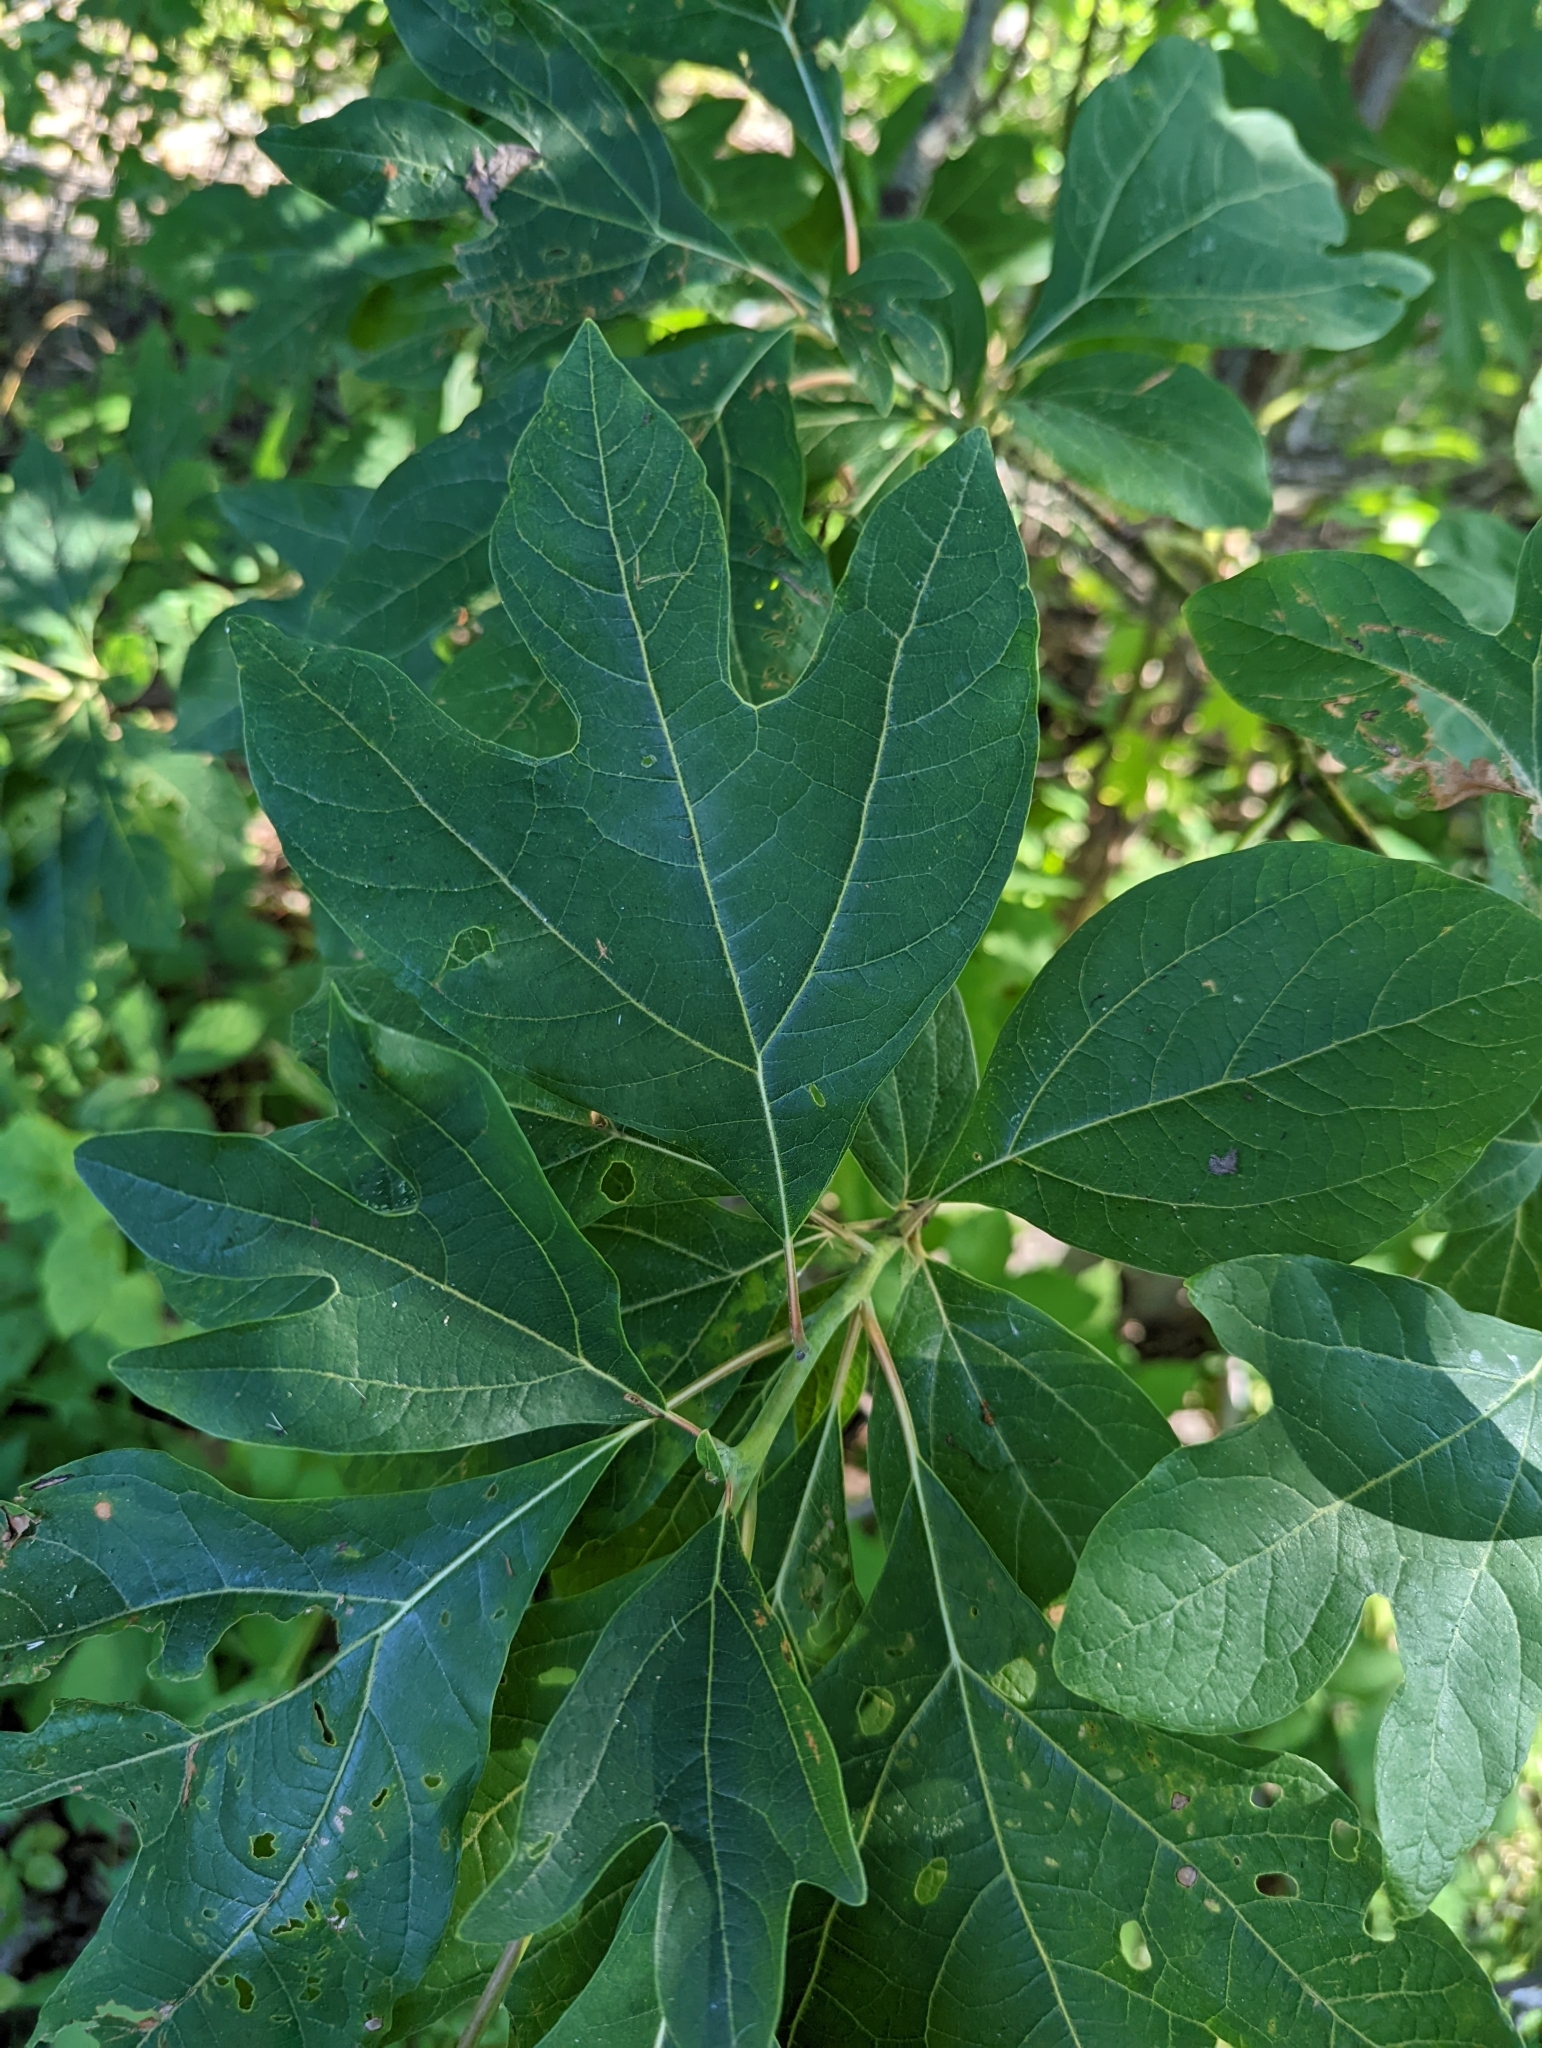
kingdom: Plantae
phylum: Tracheophyta
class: Magnoliopsida
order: Laurales
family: Lauraceae
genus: Sassafras
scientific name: Sassafras albidum
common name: Sassafras
